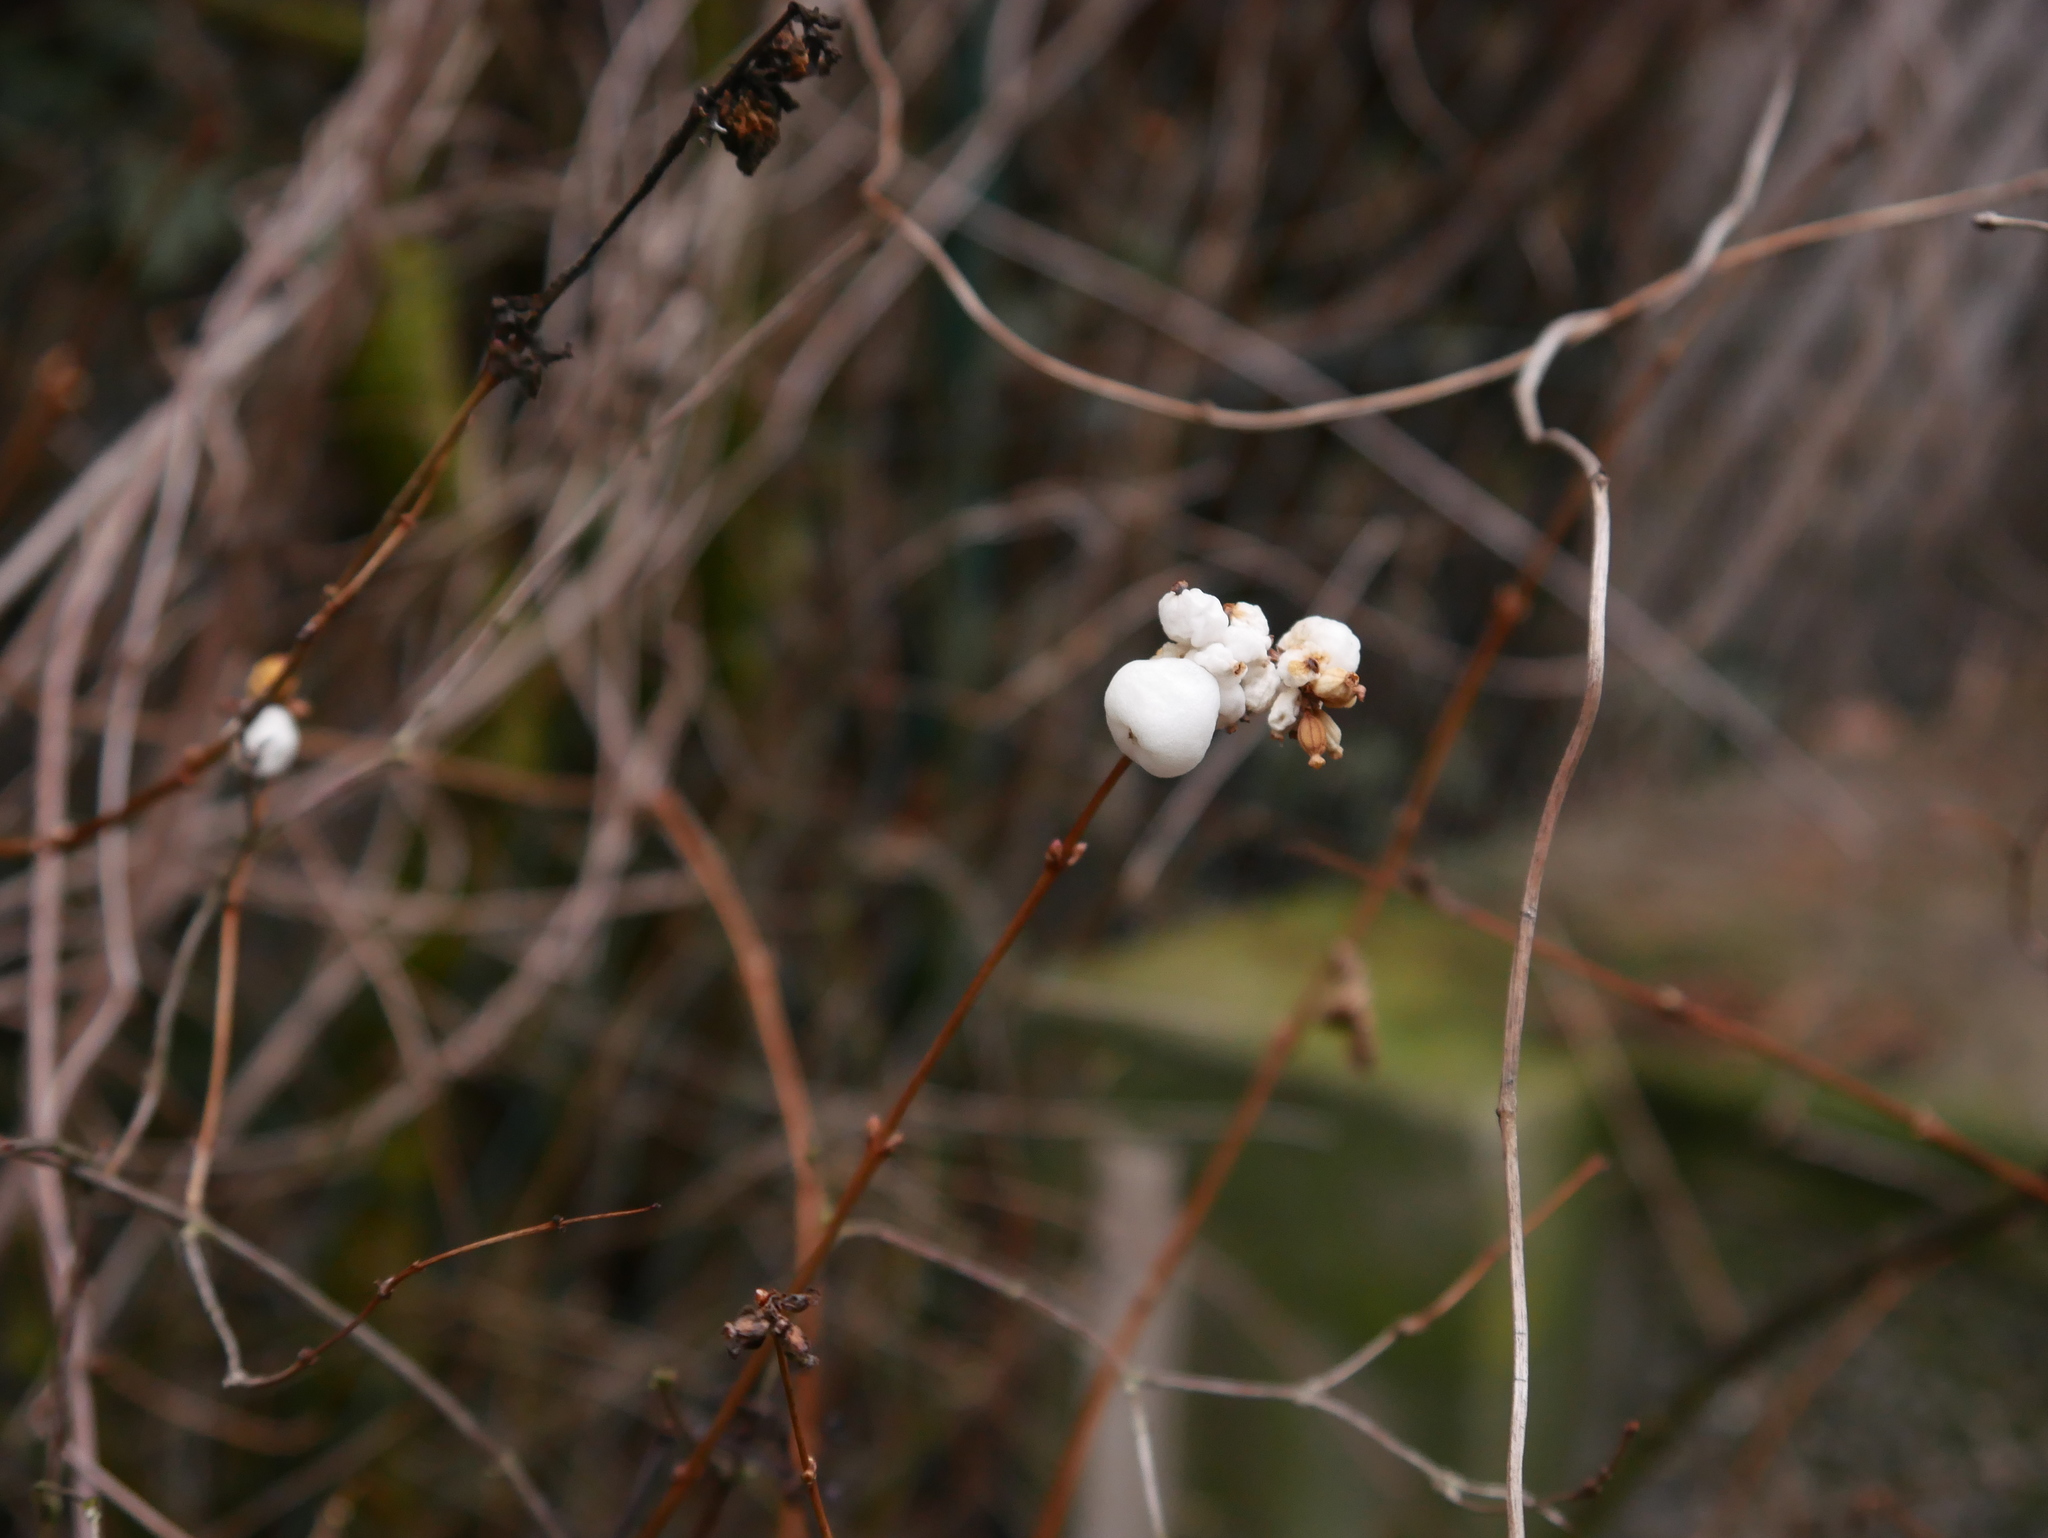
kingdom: Plantae
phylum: Tracheophyta
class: Magnoliopsida
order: Dipsacales
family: Caprifoliaceae
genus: Symphoricarpos
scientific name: Symphoricarpos albus
